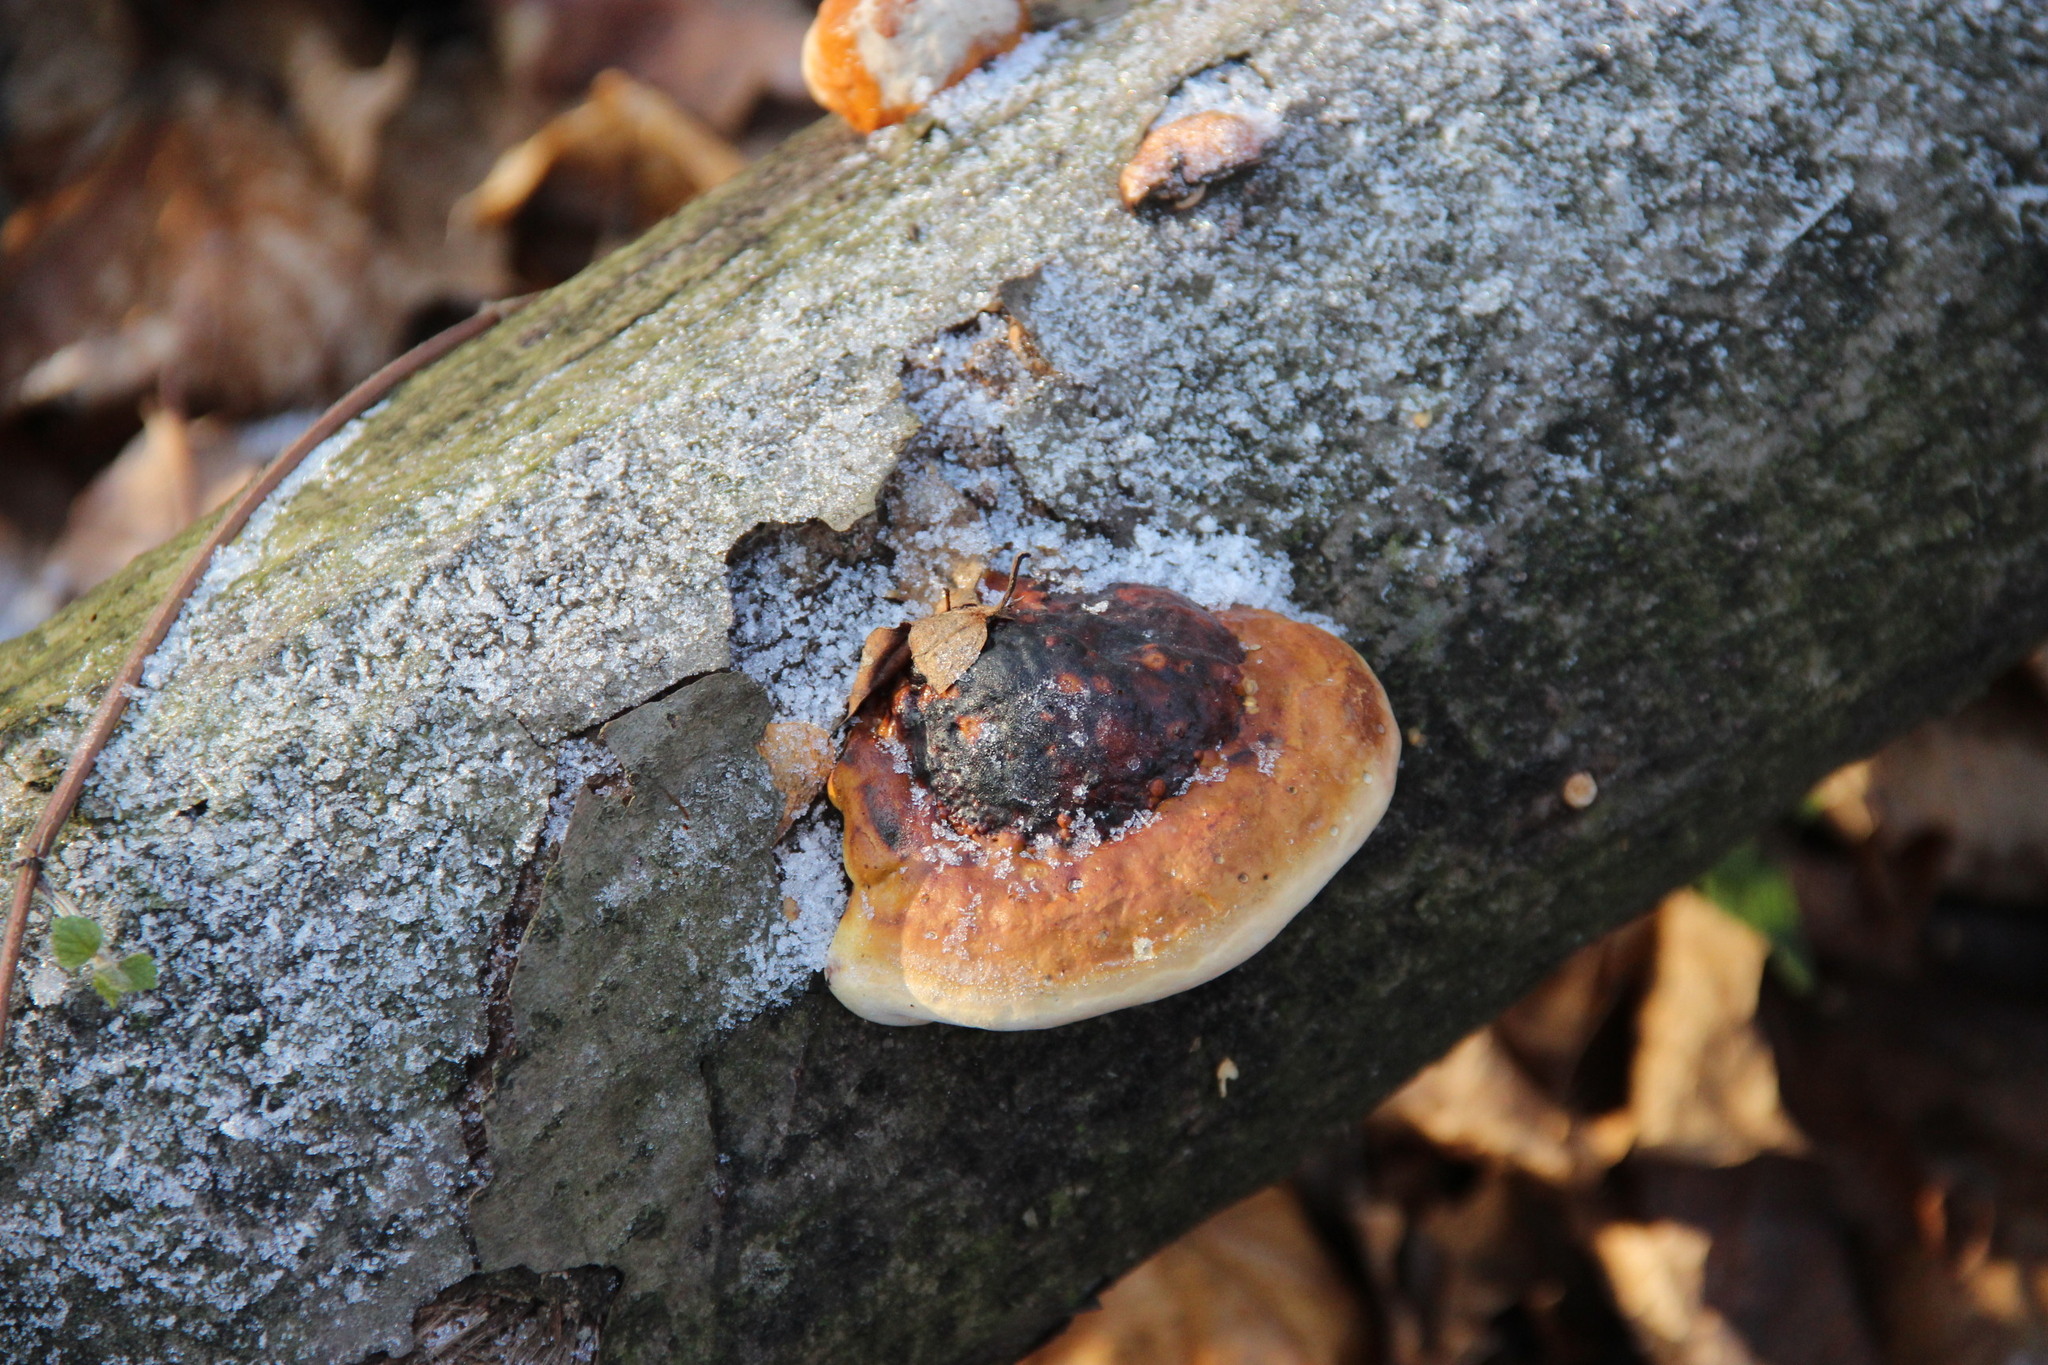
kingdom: Fungi
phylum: Basidiomycota
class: Agaricomycetes
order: Polyporales
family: Fomitopsidaceae
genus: Fomitopsis
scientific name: Fomitopsis pinicola
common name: Red-belted bracket
